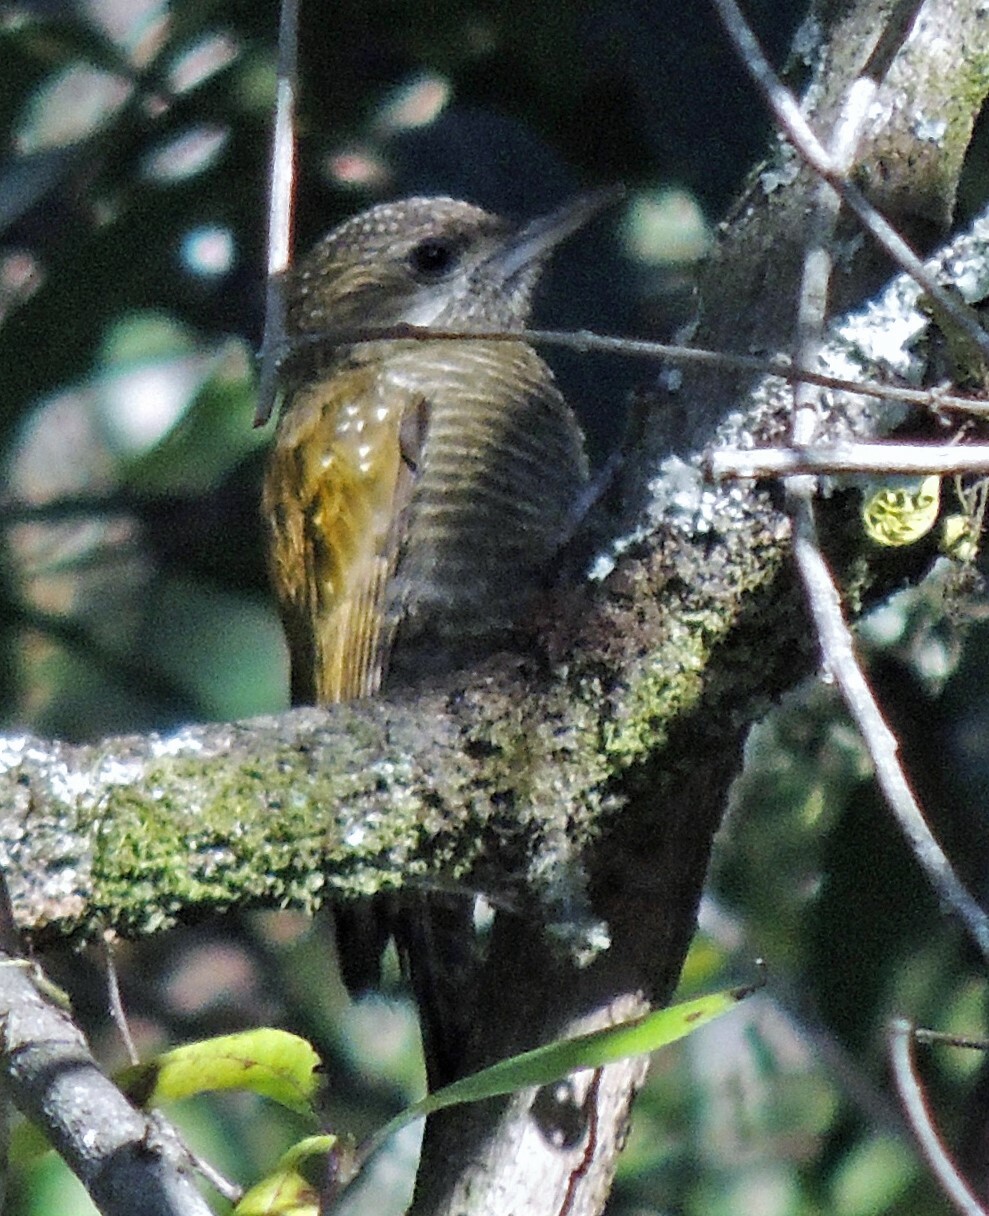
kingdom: Animalia
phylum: Chordata
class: Aves
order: Piciformes
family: Picidae
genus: Veniliornis
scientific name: Veniliornis frontalis
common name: Dot-fronted woodpecker
